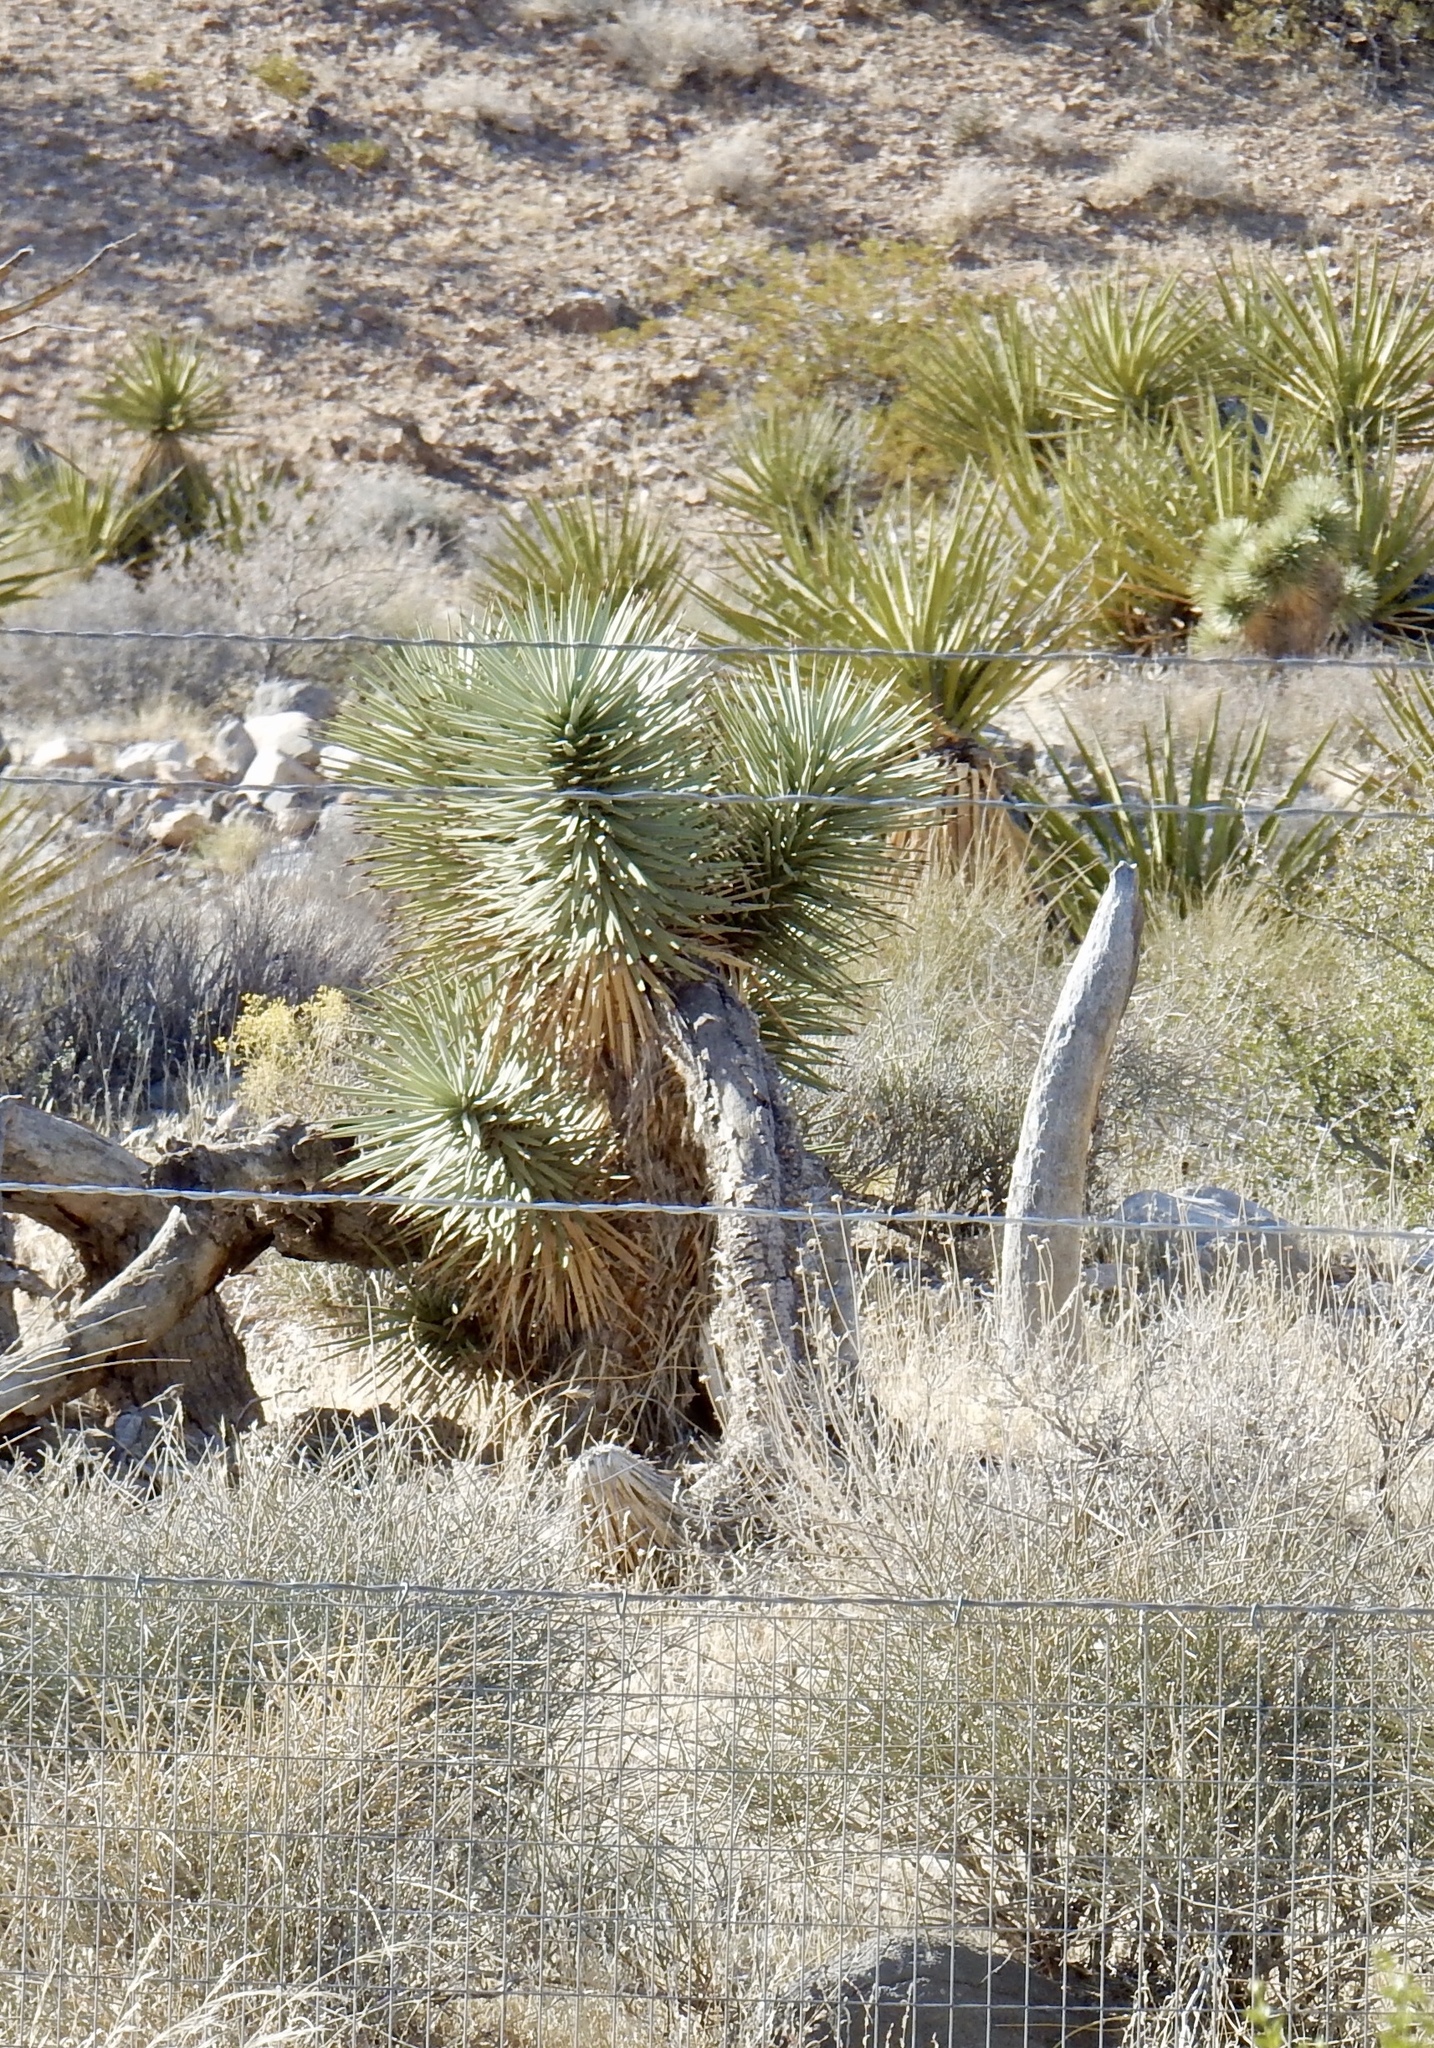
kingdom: Plantae
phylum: Tracheophyta
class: Liliopsida
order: Asparagales
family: Asparagaceae
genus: Yucca
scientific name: Yucca brevifolia
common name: Joshua tree
